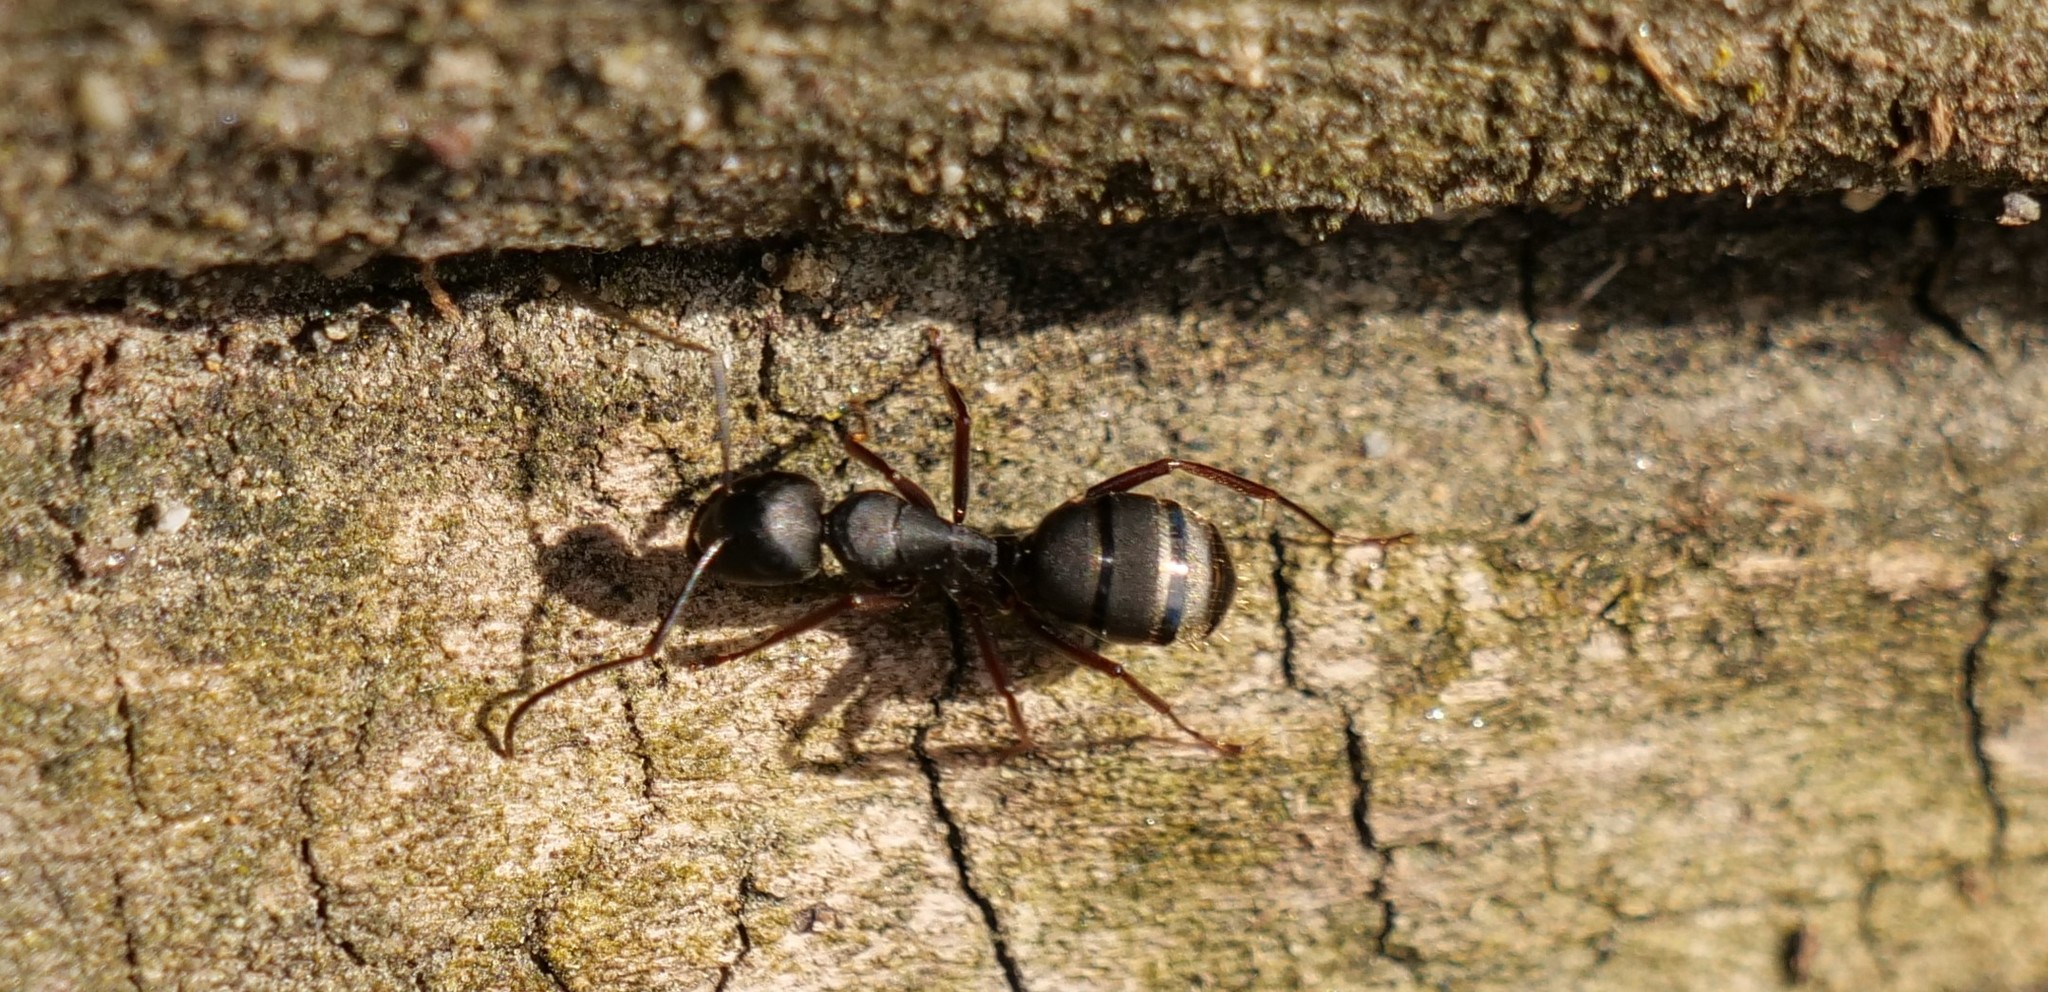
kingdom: Animalia
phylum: Arthropoda
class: Insecta
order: Hymenoptera
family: Formicidae
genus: Camponotus
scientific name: Camponotus modoc
